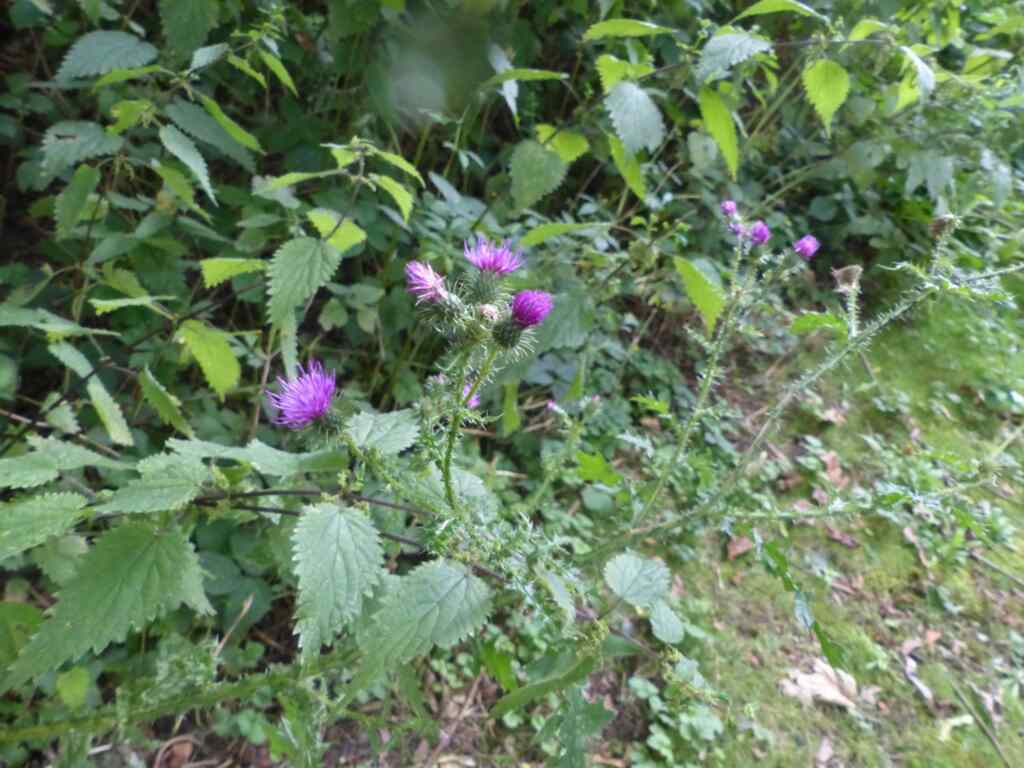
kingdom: Plantae
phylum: Tracheophyta
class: Magnoliopsida
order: Asterales
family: Asteraceae
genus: Carduus
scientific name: Carduus crispus
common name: Welted thistle
